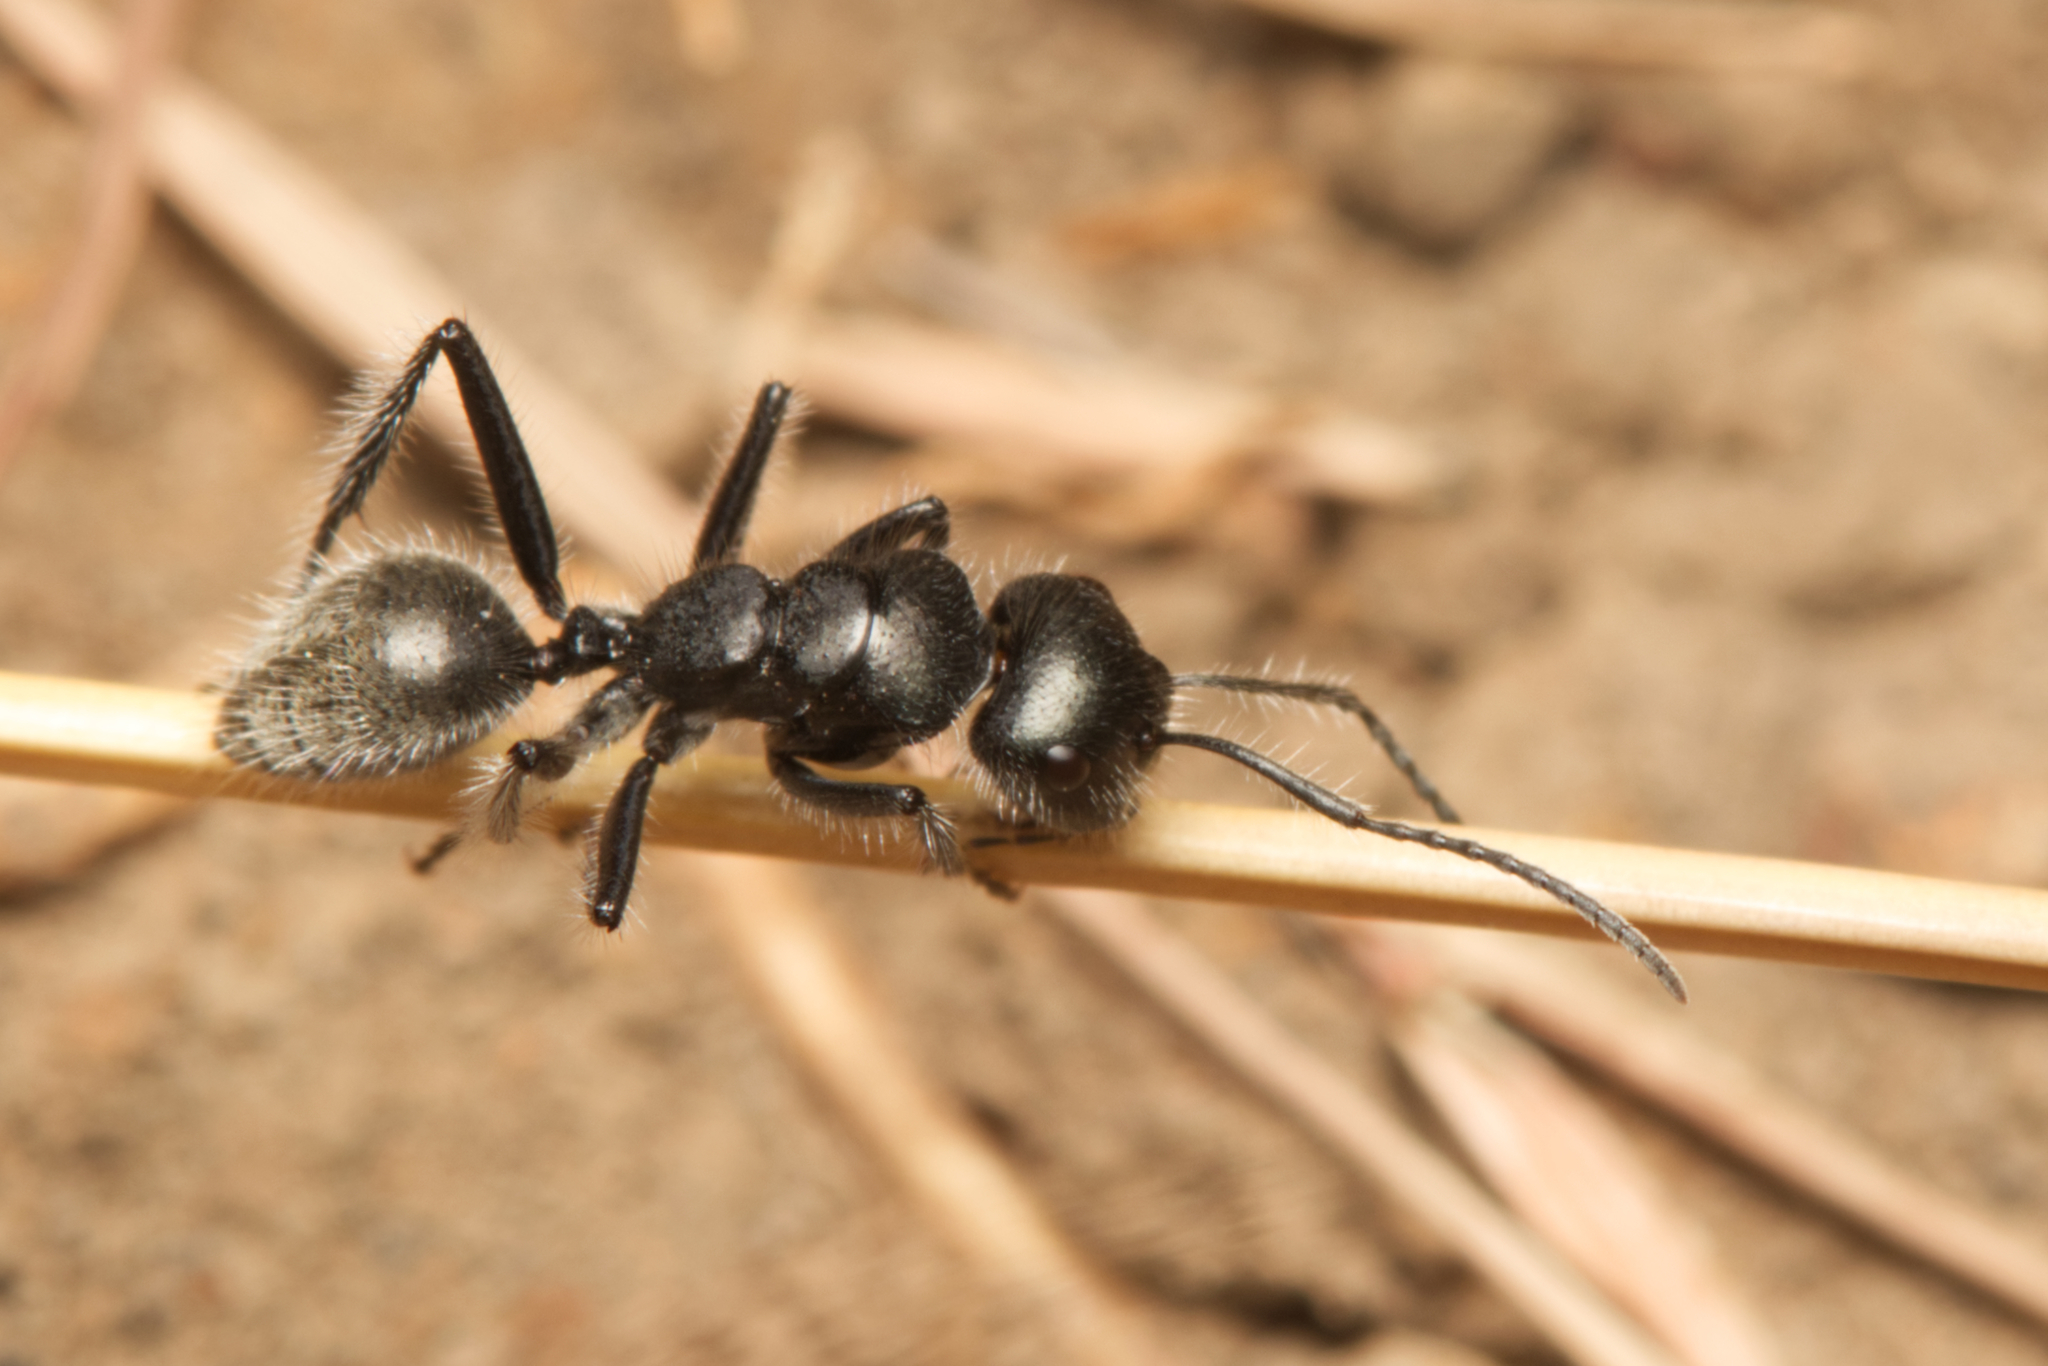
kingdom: Animalia
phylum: Arthropoda
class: Insecta
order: Hymenoptera
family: Formicidae
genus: Calomyrmex
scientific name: Calomyrmex albopilosus
